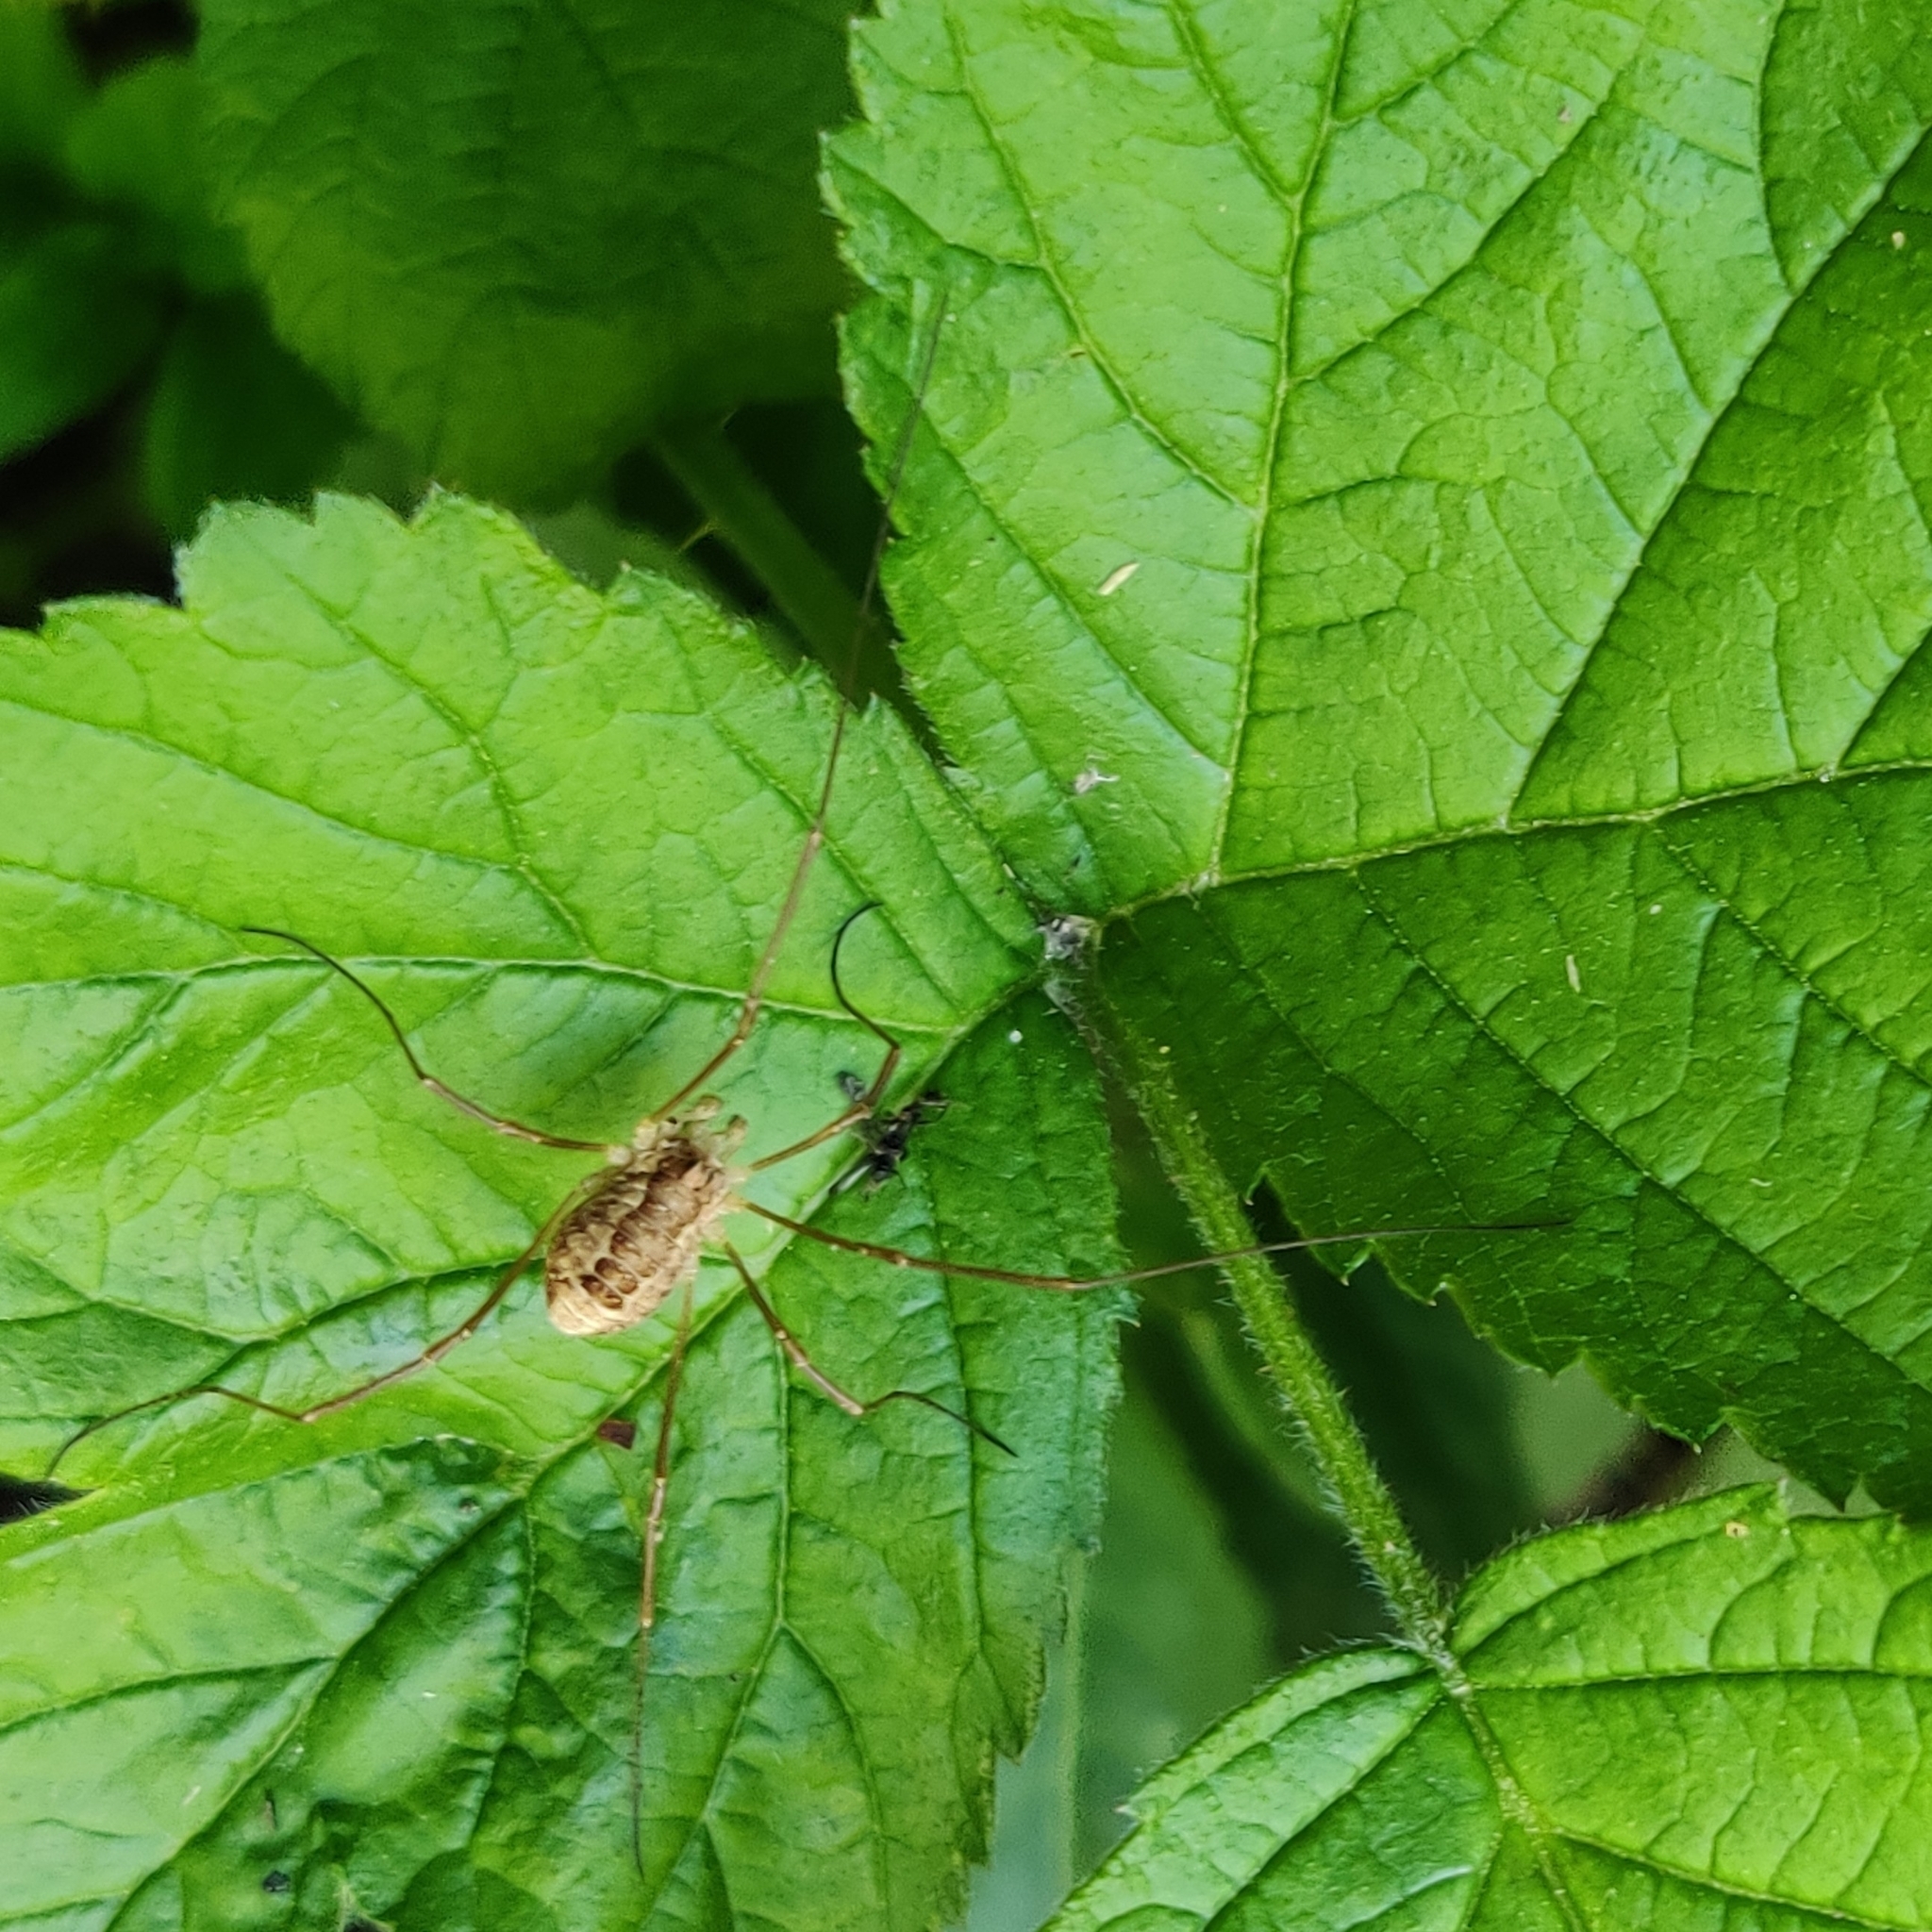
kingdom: Animalia
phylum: Arthropoda
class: Arachnida
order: Opiliones
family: Phalangiidae
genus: Rilaena
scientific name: Rilaena triangularis
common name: Spring harvestman
